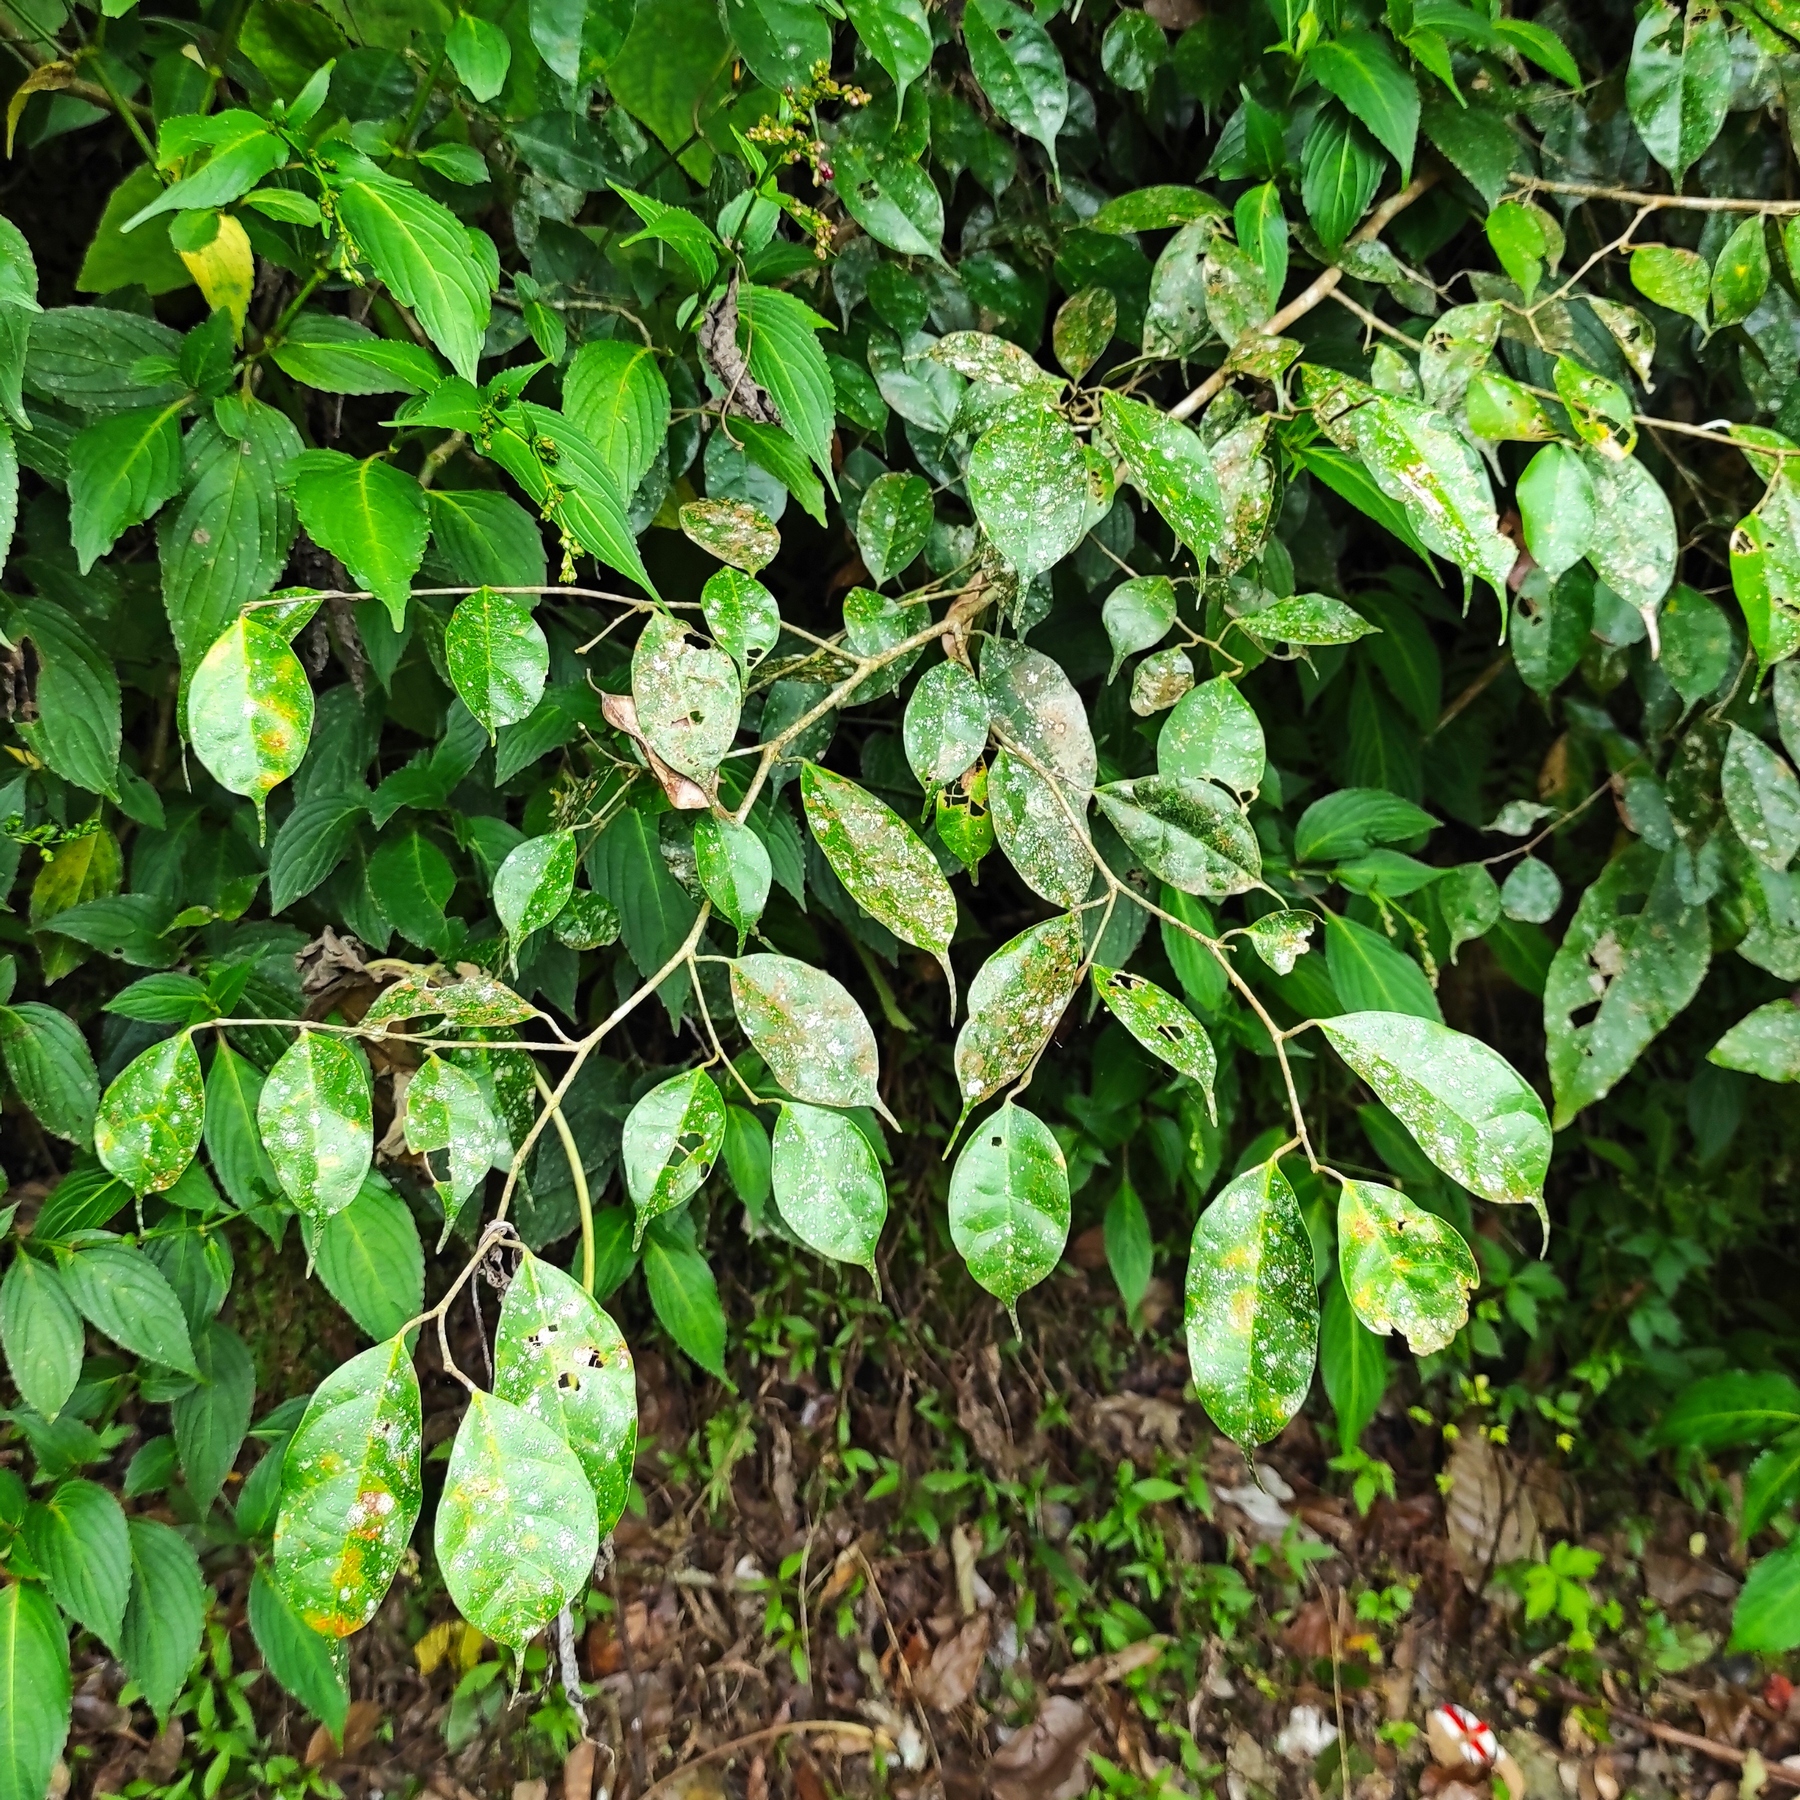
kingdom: Plantae
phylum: Tracheophyta
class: Magnoliopsida
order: Rosales
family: Moraceae
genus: Ficus
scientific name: Ficus sinuata
